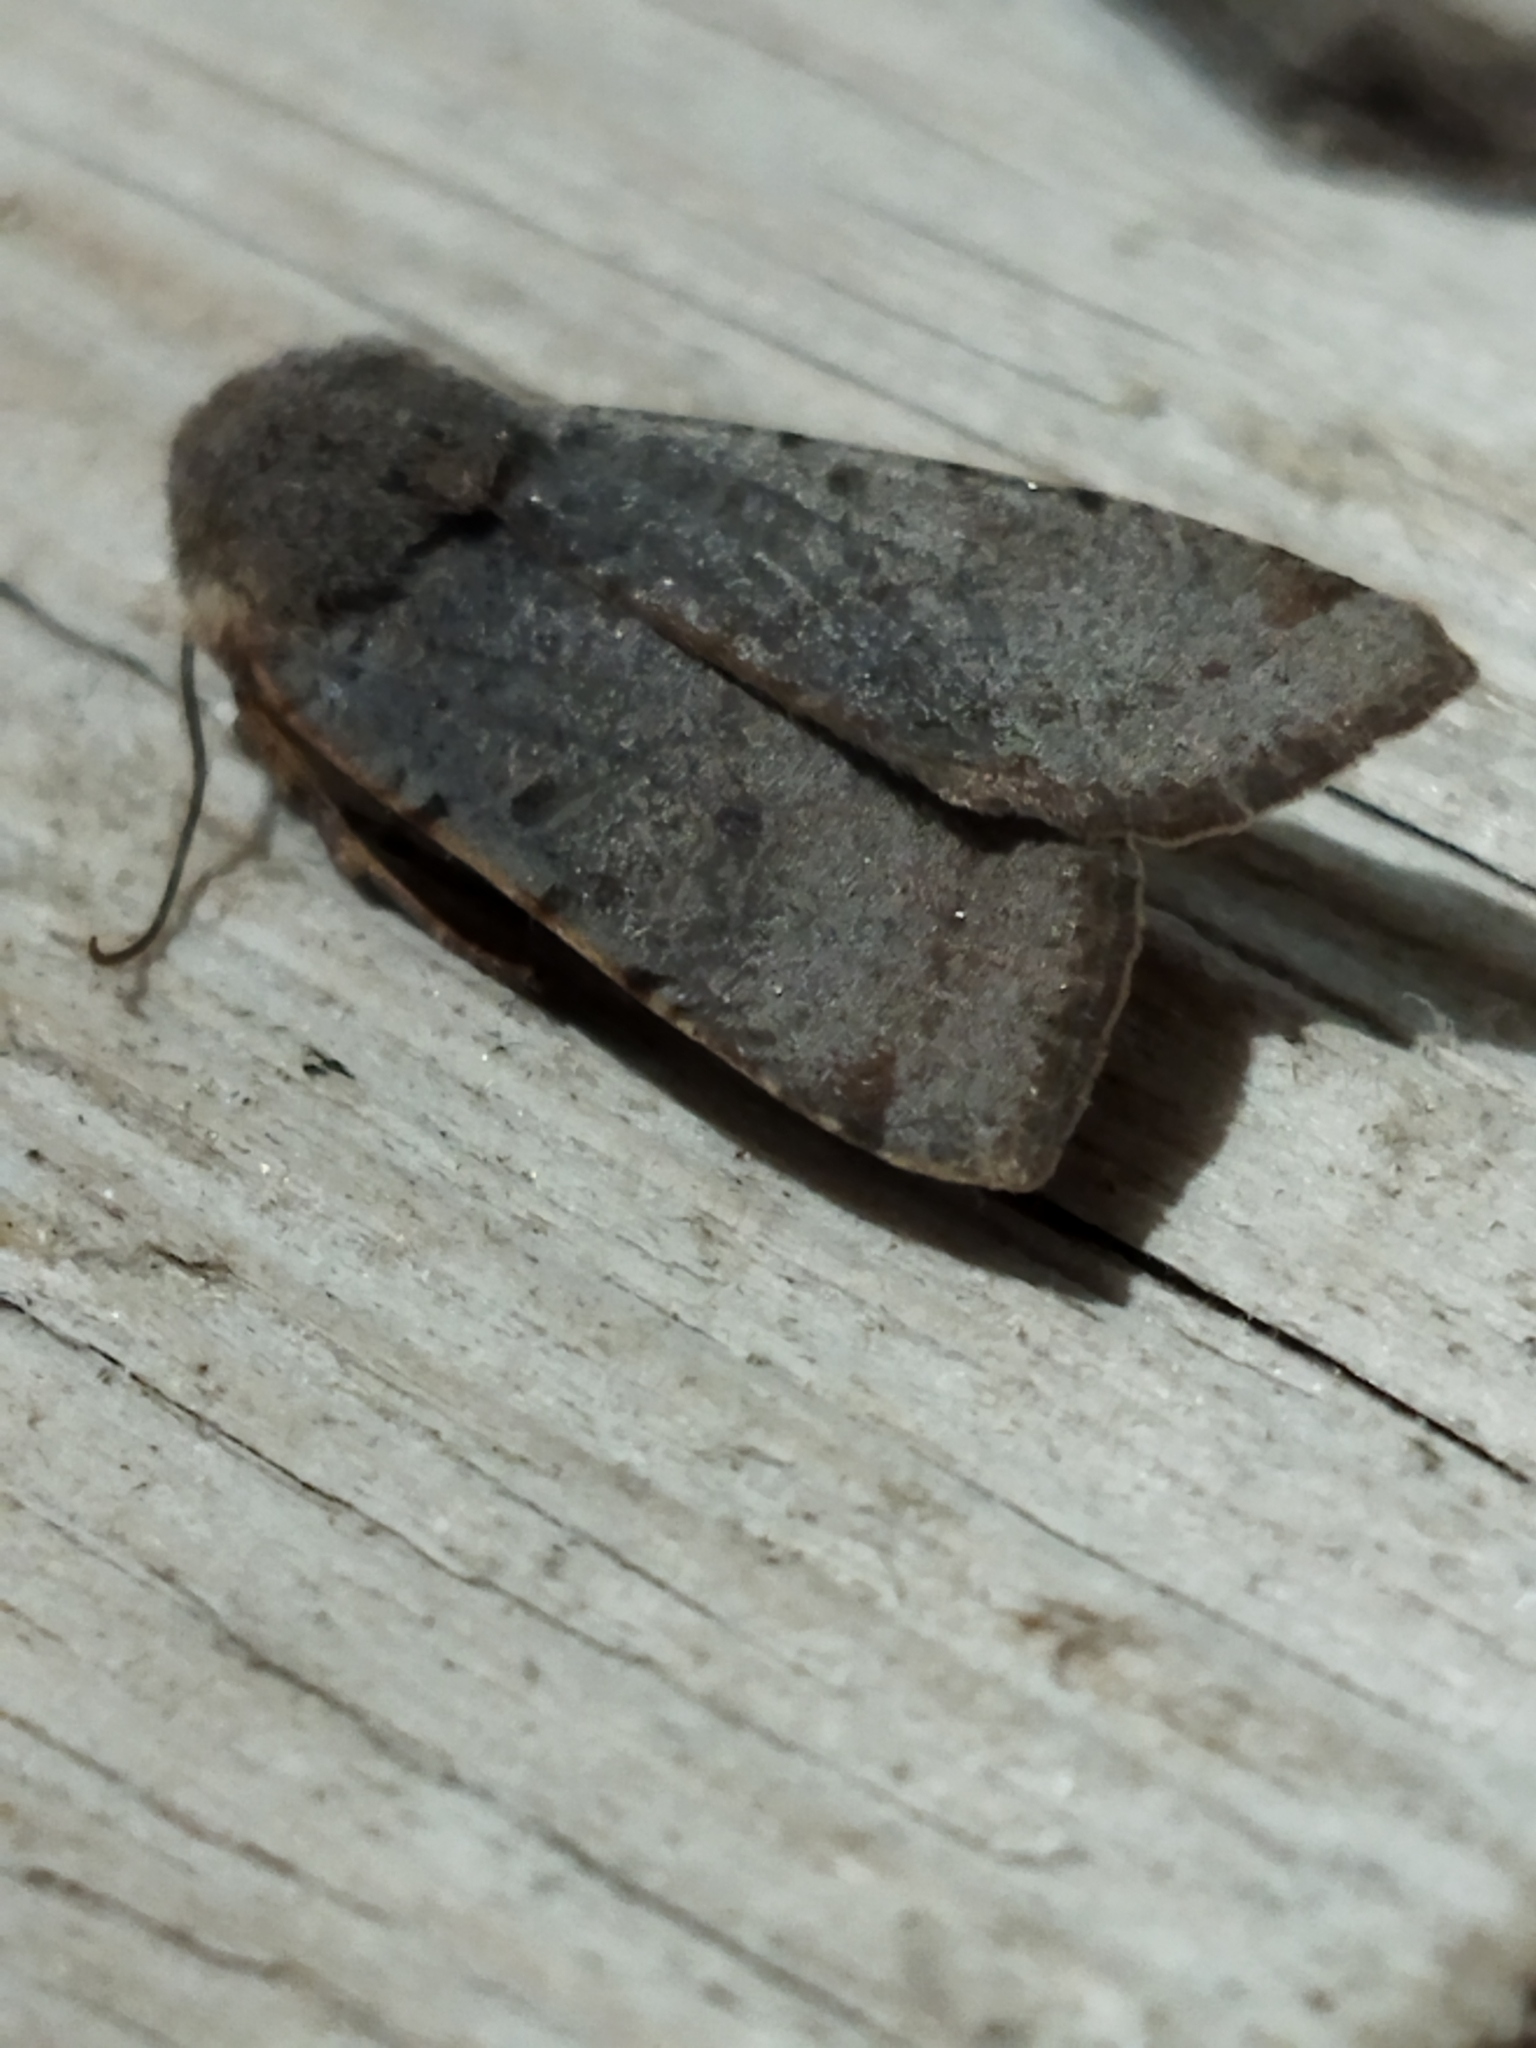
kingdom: Animalia
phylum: Arthropoda
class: Insecta
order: Lepidoptera
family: Noctuidae
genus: Agrochola
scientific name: Agrochola lychnidis
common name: Beaded chestnut
